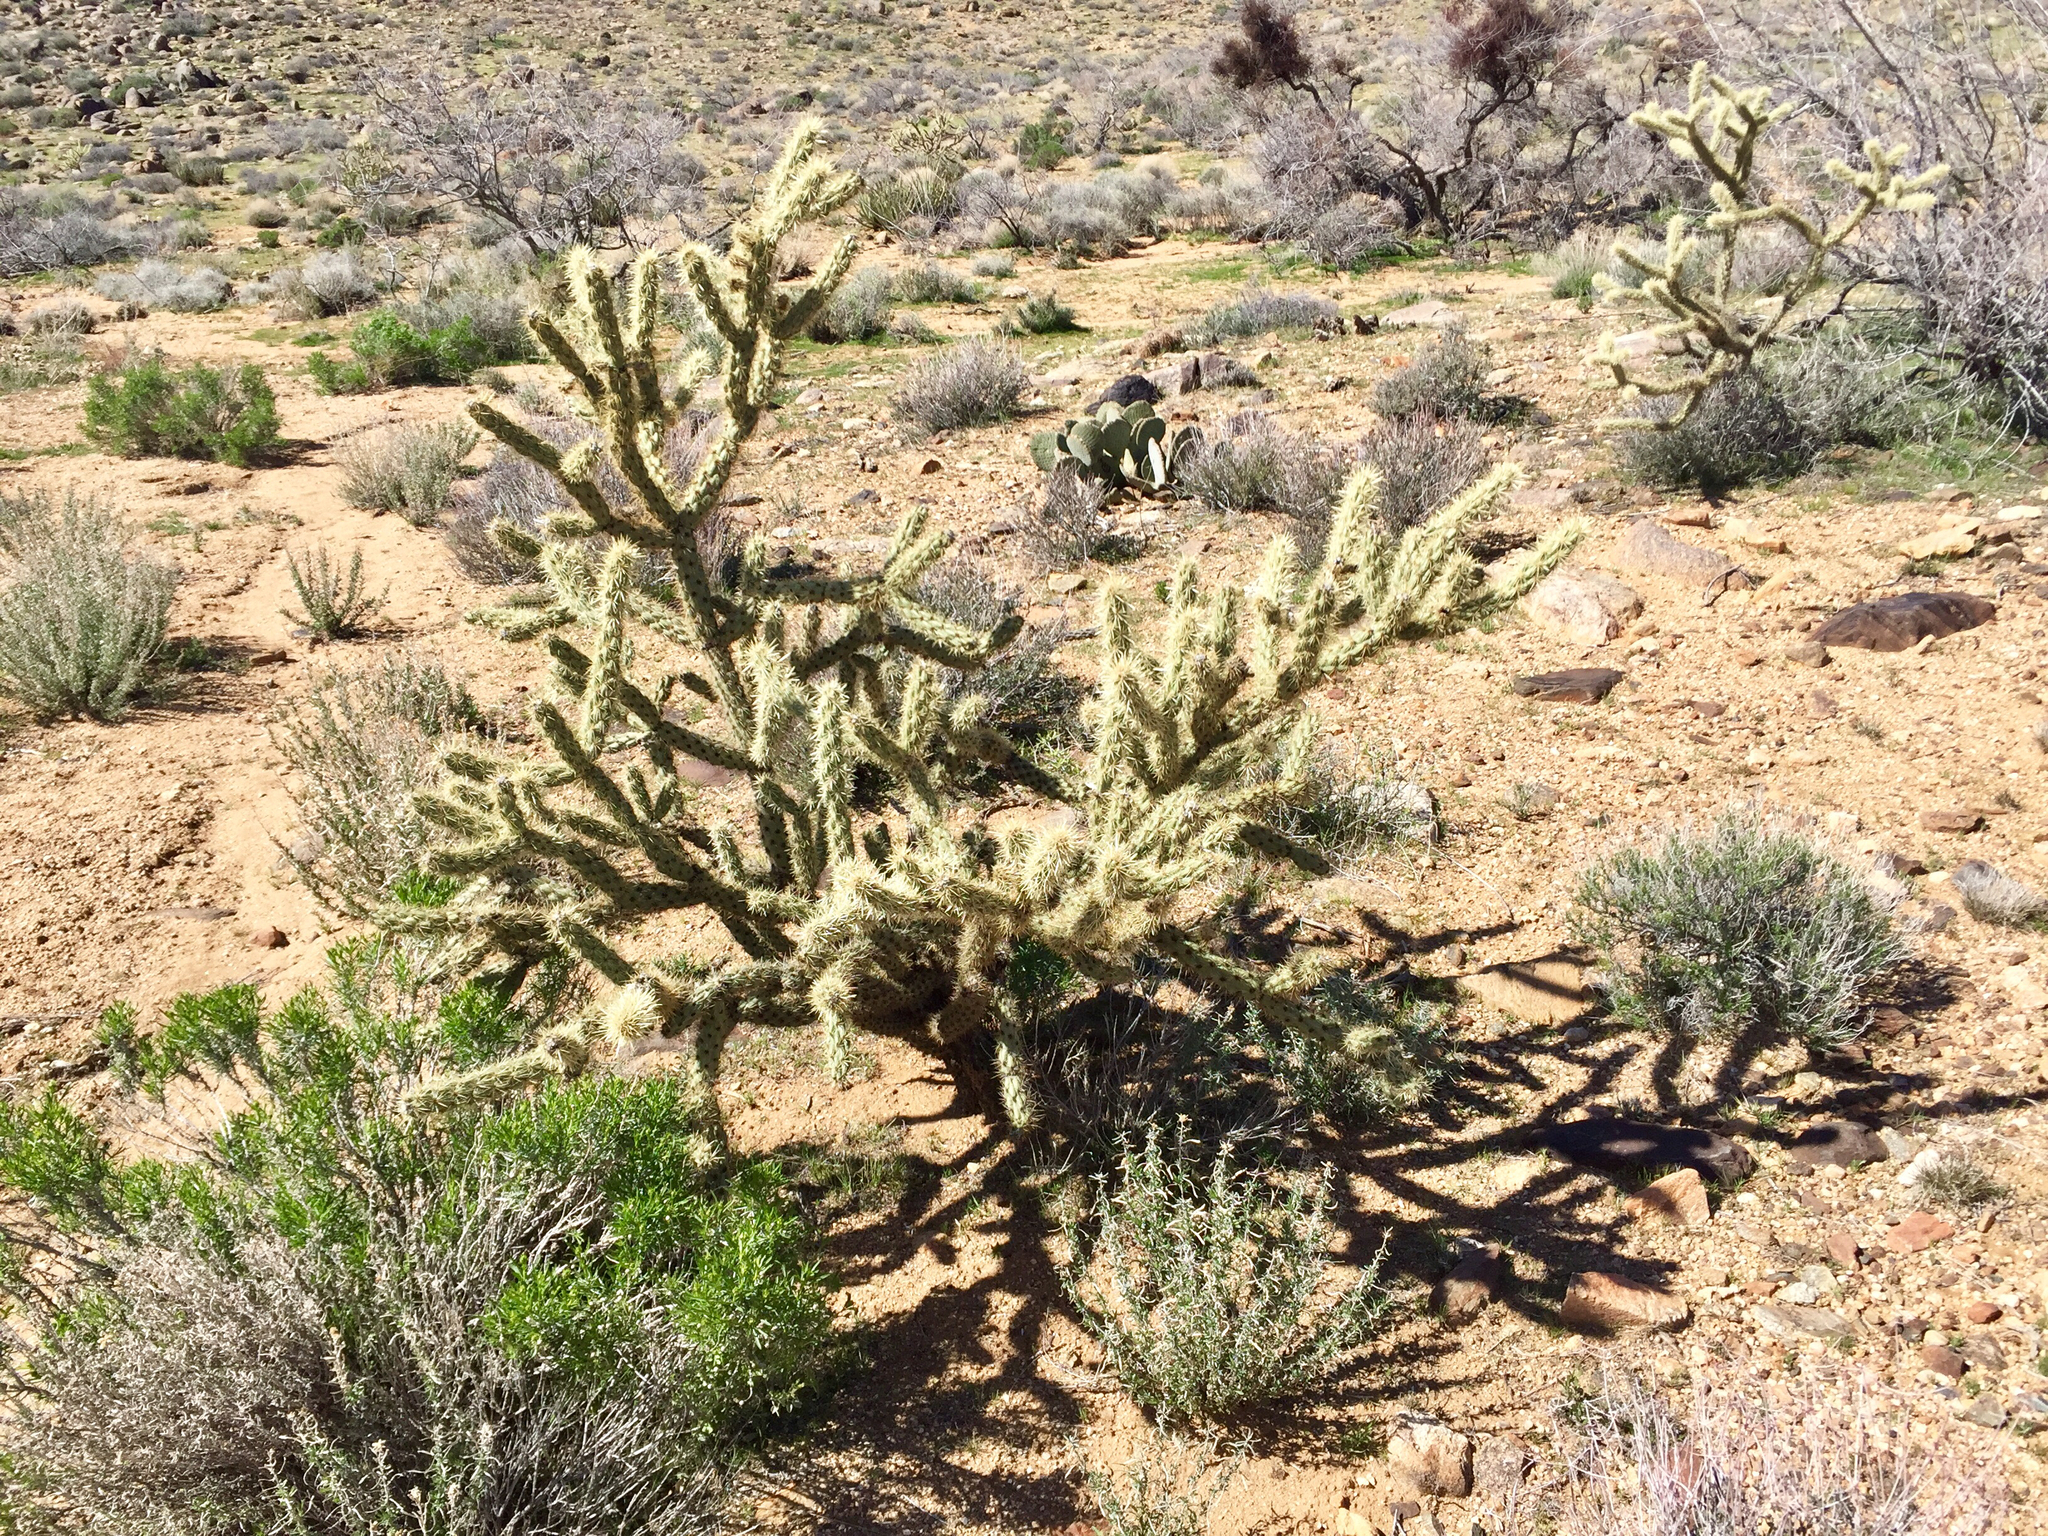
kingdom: Plantae
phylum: Tracheophyta
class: Magnoliopsida
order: Caryophyllales
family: Cactaceae
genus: Cylindropuntia
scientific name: Cylindropuntia acanthocarpa
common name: Buckhorn cholla
